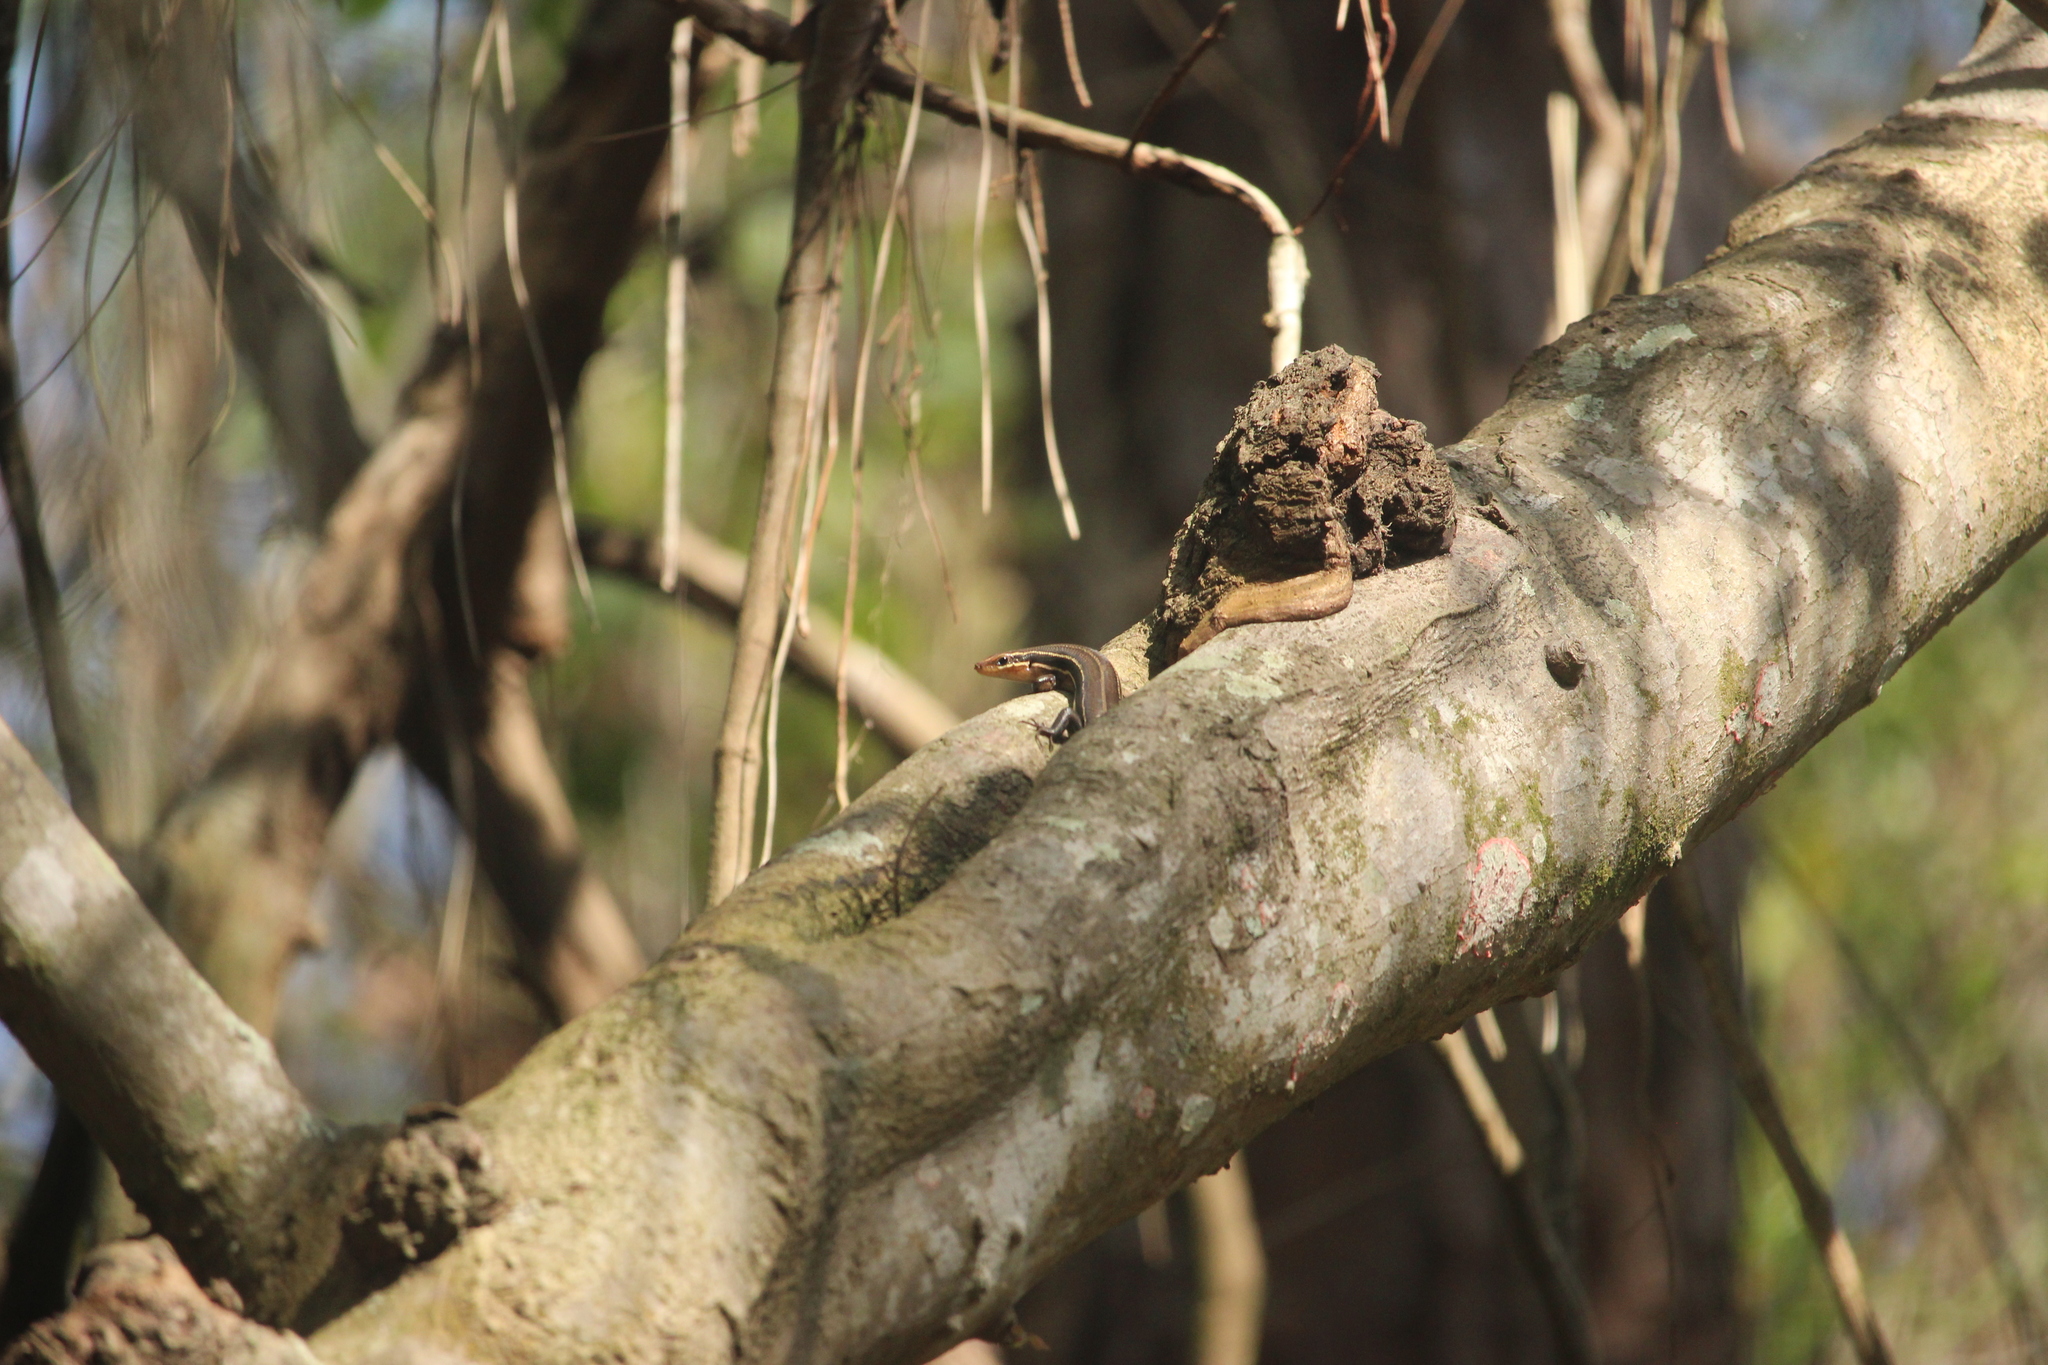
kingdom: Animalia
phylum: Chordata
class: Squamata
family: Scincidae
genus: Plestiodon
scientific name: Plestiodon inexpectatus
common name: Southeastern five-lined skink
